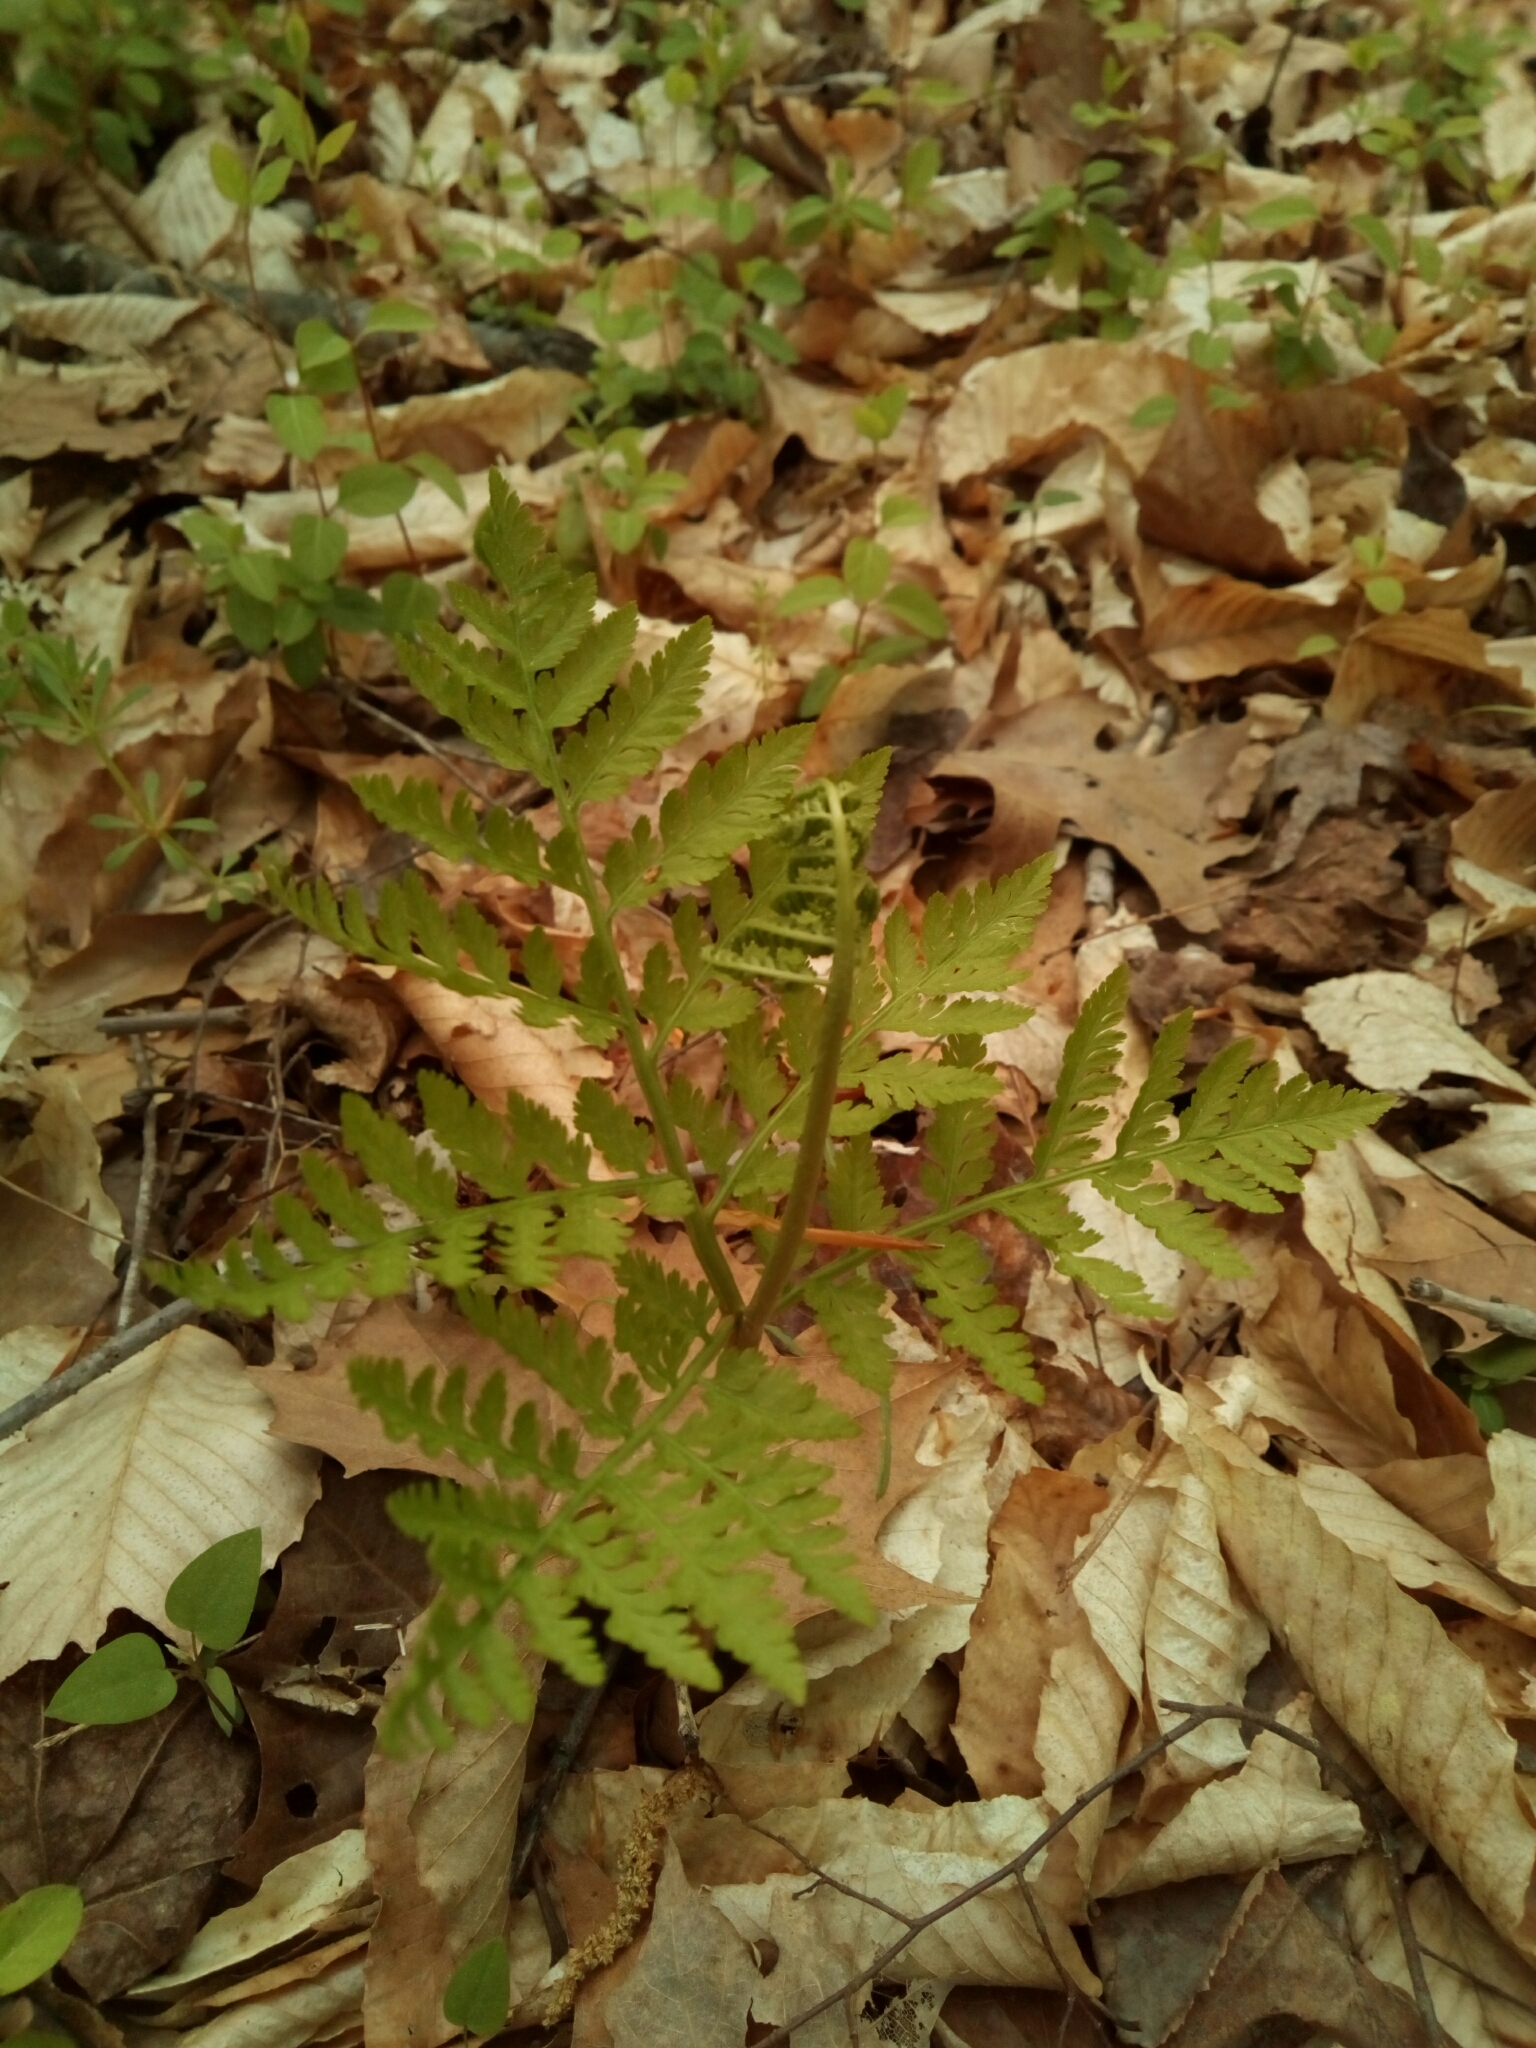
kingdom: Plantae
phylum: Tracheophyta
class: Polypodiopsida
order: Ophioglossales
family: Ophioglossaceae
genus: Botrypus
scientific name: Botrypus virginianus
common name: Common grapefern
